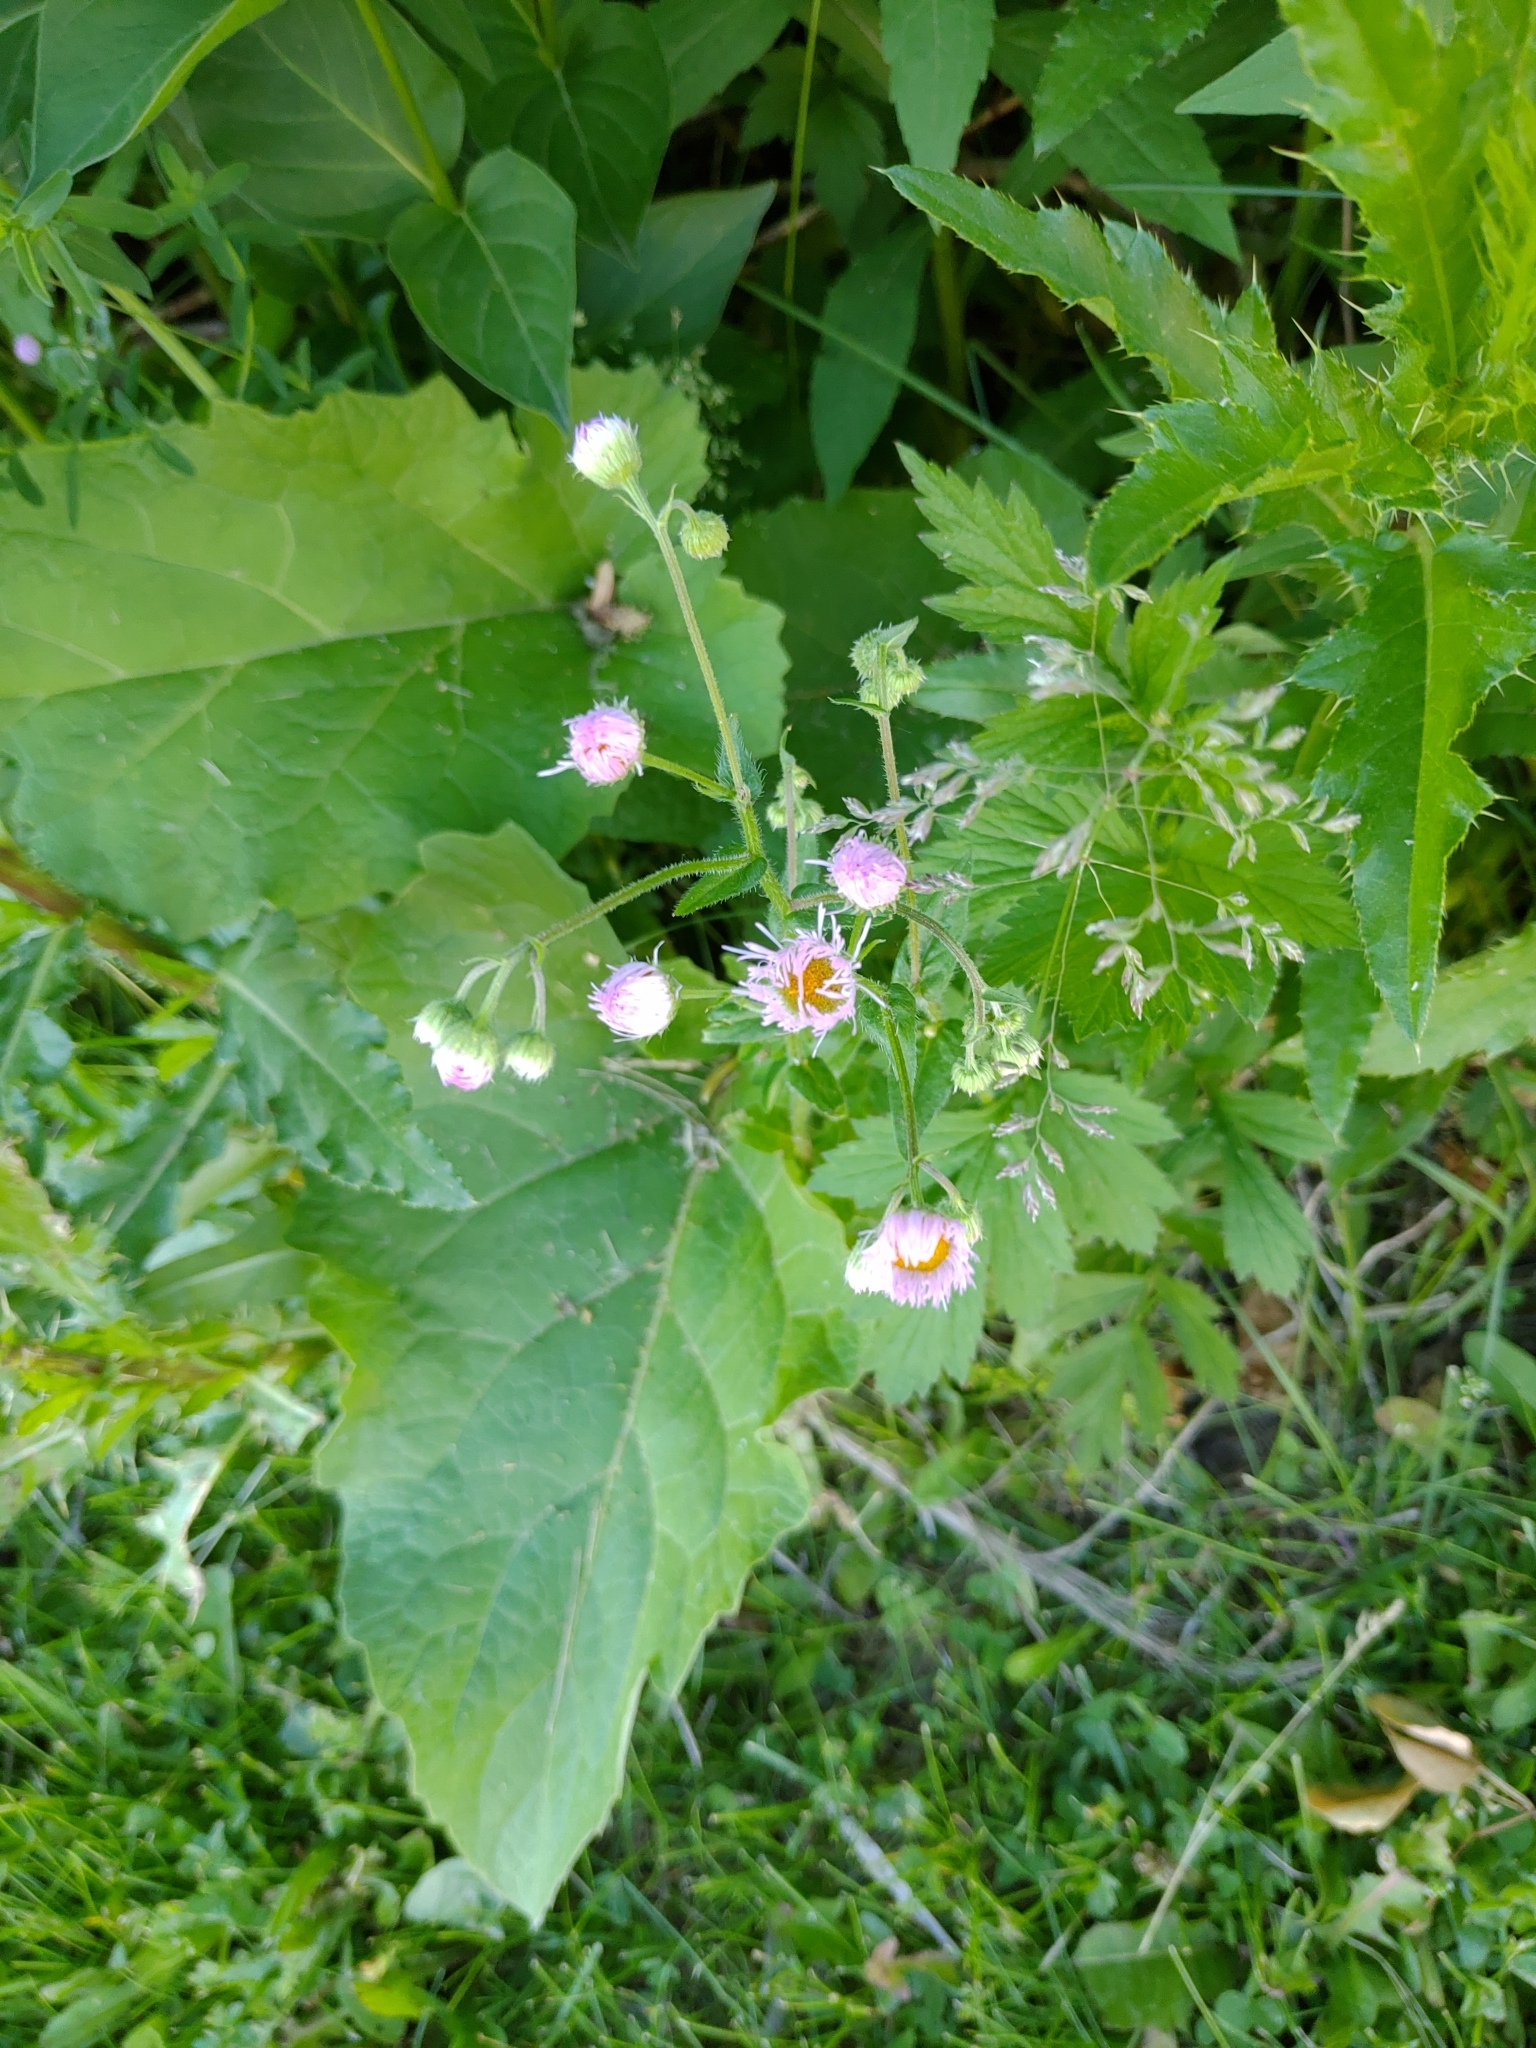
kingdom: Plantae
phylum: Tracheophyta
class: Magnoliopsida
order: Asterales
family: Asteraceae
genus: Erigeron
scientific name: Erigeron philadelphicus
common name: Robin's-plantain
